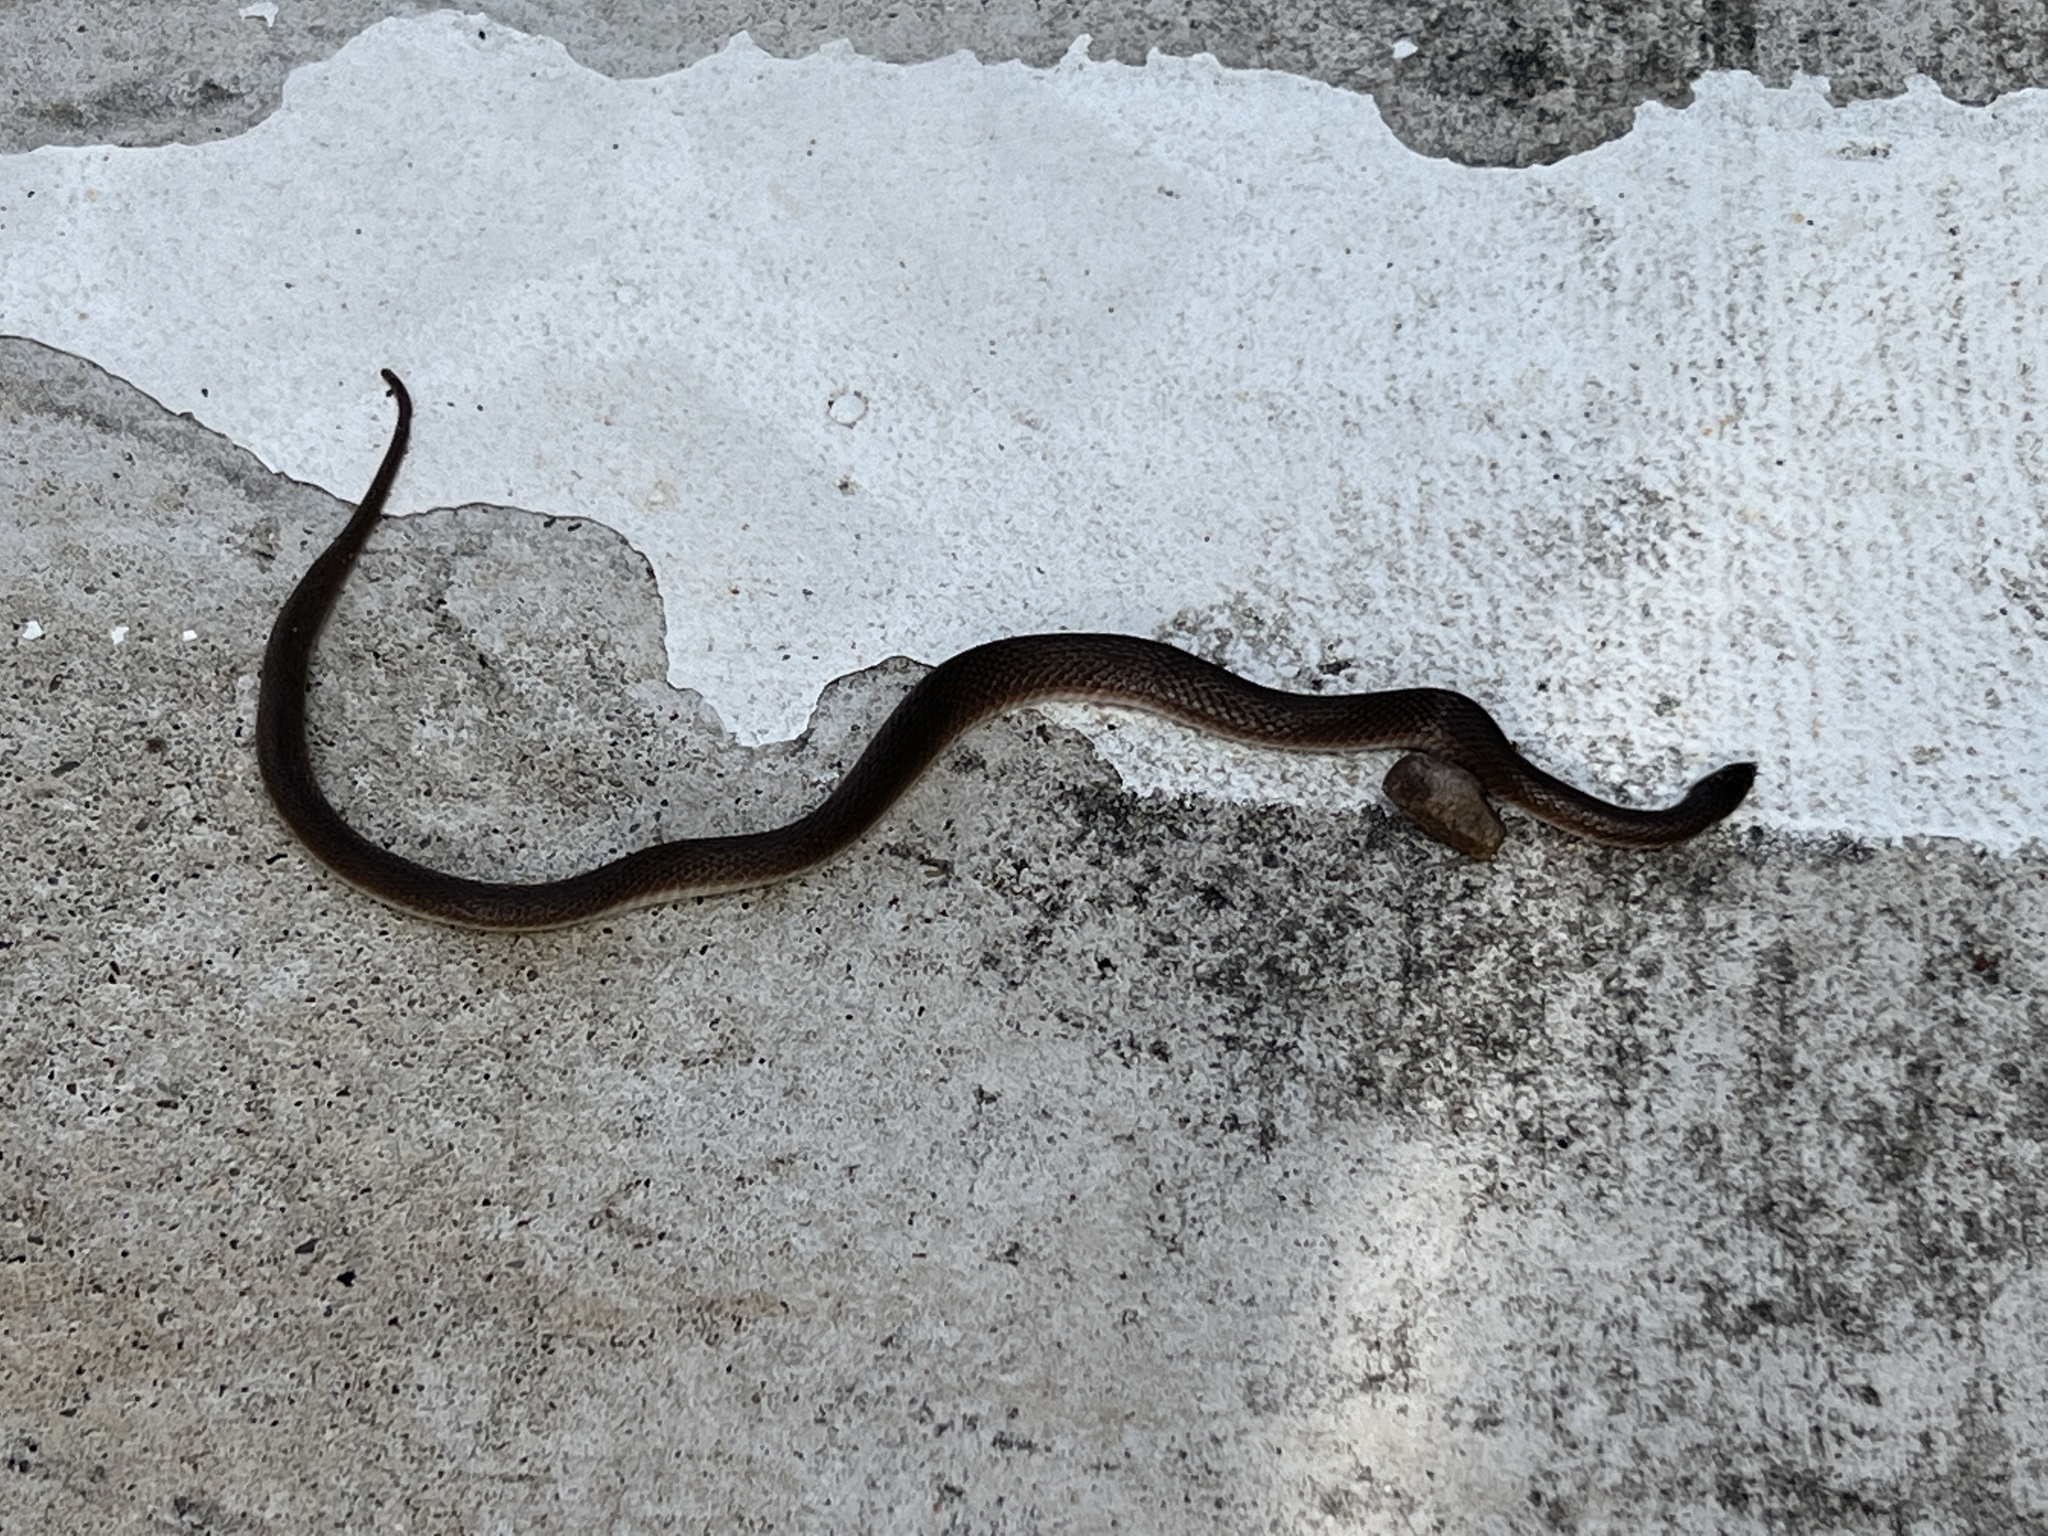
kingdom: Animalia
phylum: Chordata
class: Squamata
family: Colubridae
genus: Haldea
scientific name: Haldea striatula
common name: Rough earth snake
